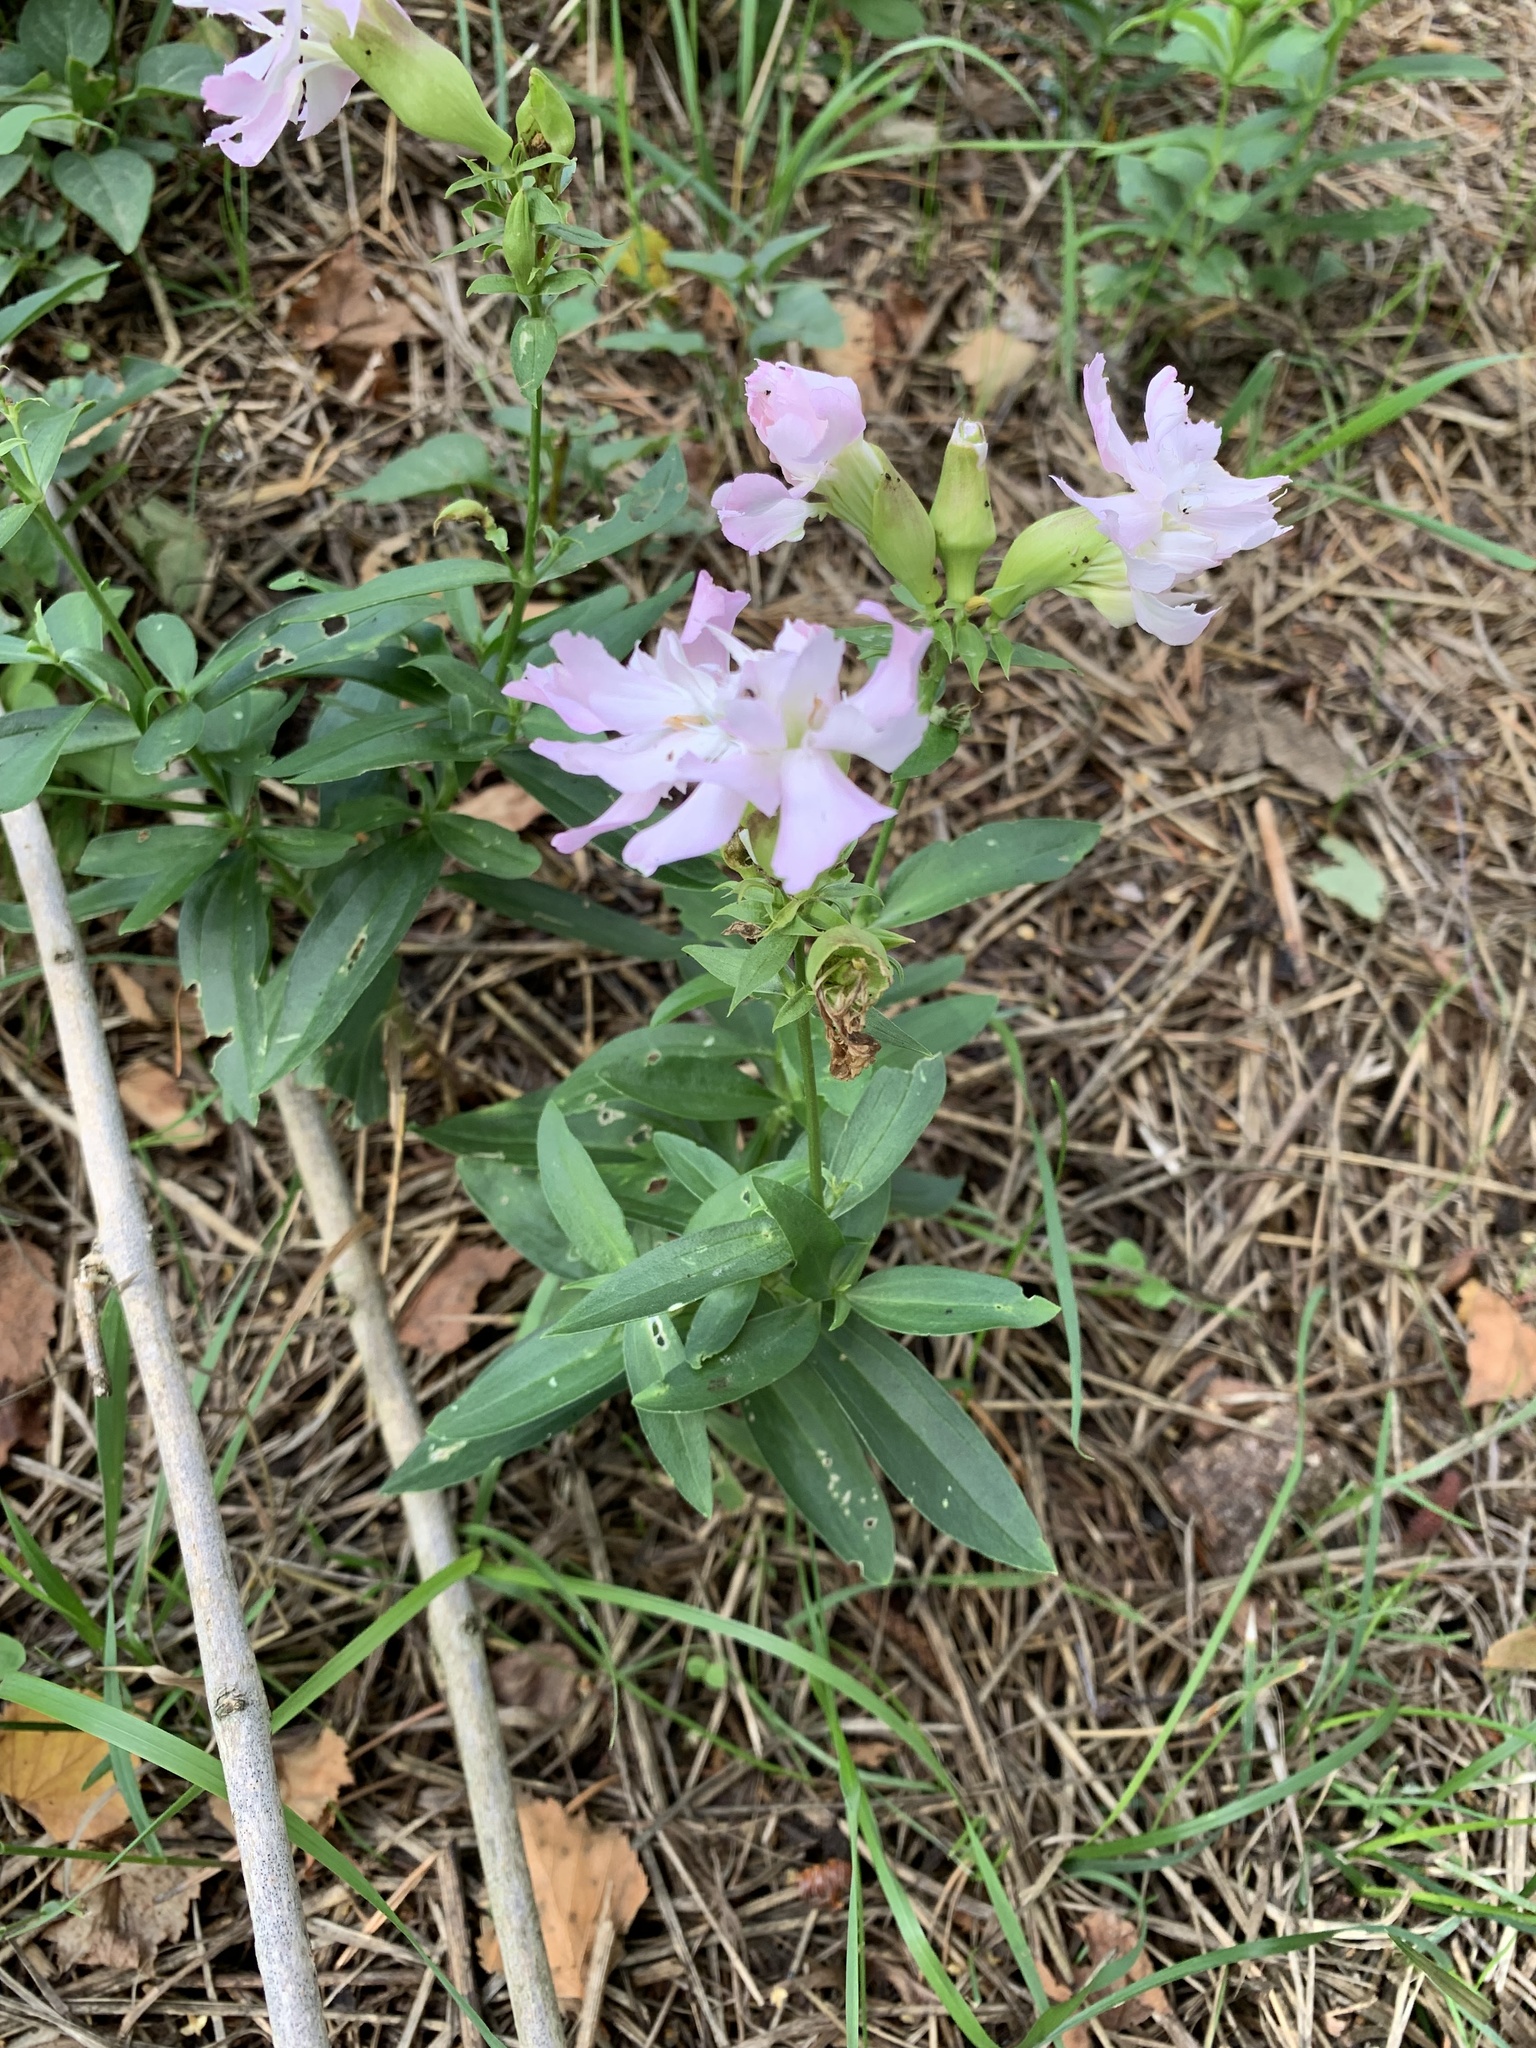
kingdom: Plantae
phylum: Tracheophyta
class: Magnoliopsida
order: Caryophyllales
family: Caryophyllaceae
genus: Saponaria
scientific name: Saponaria officinalis
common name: Soapwort
